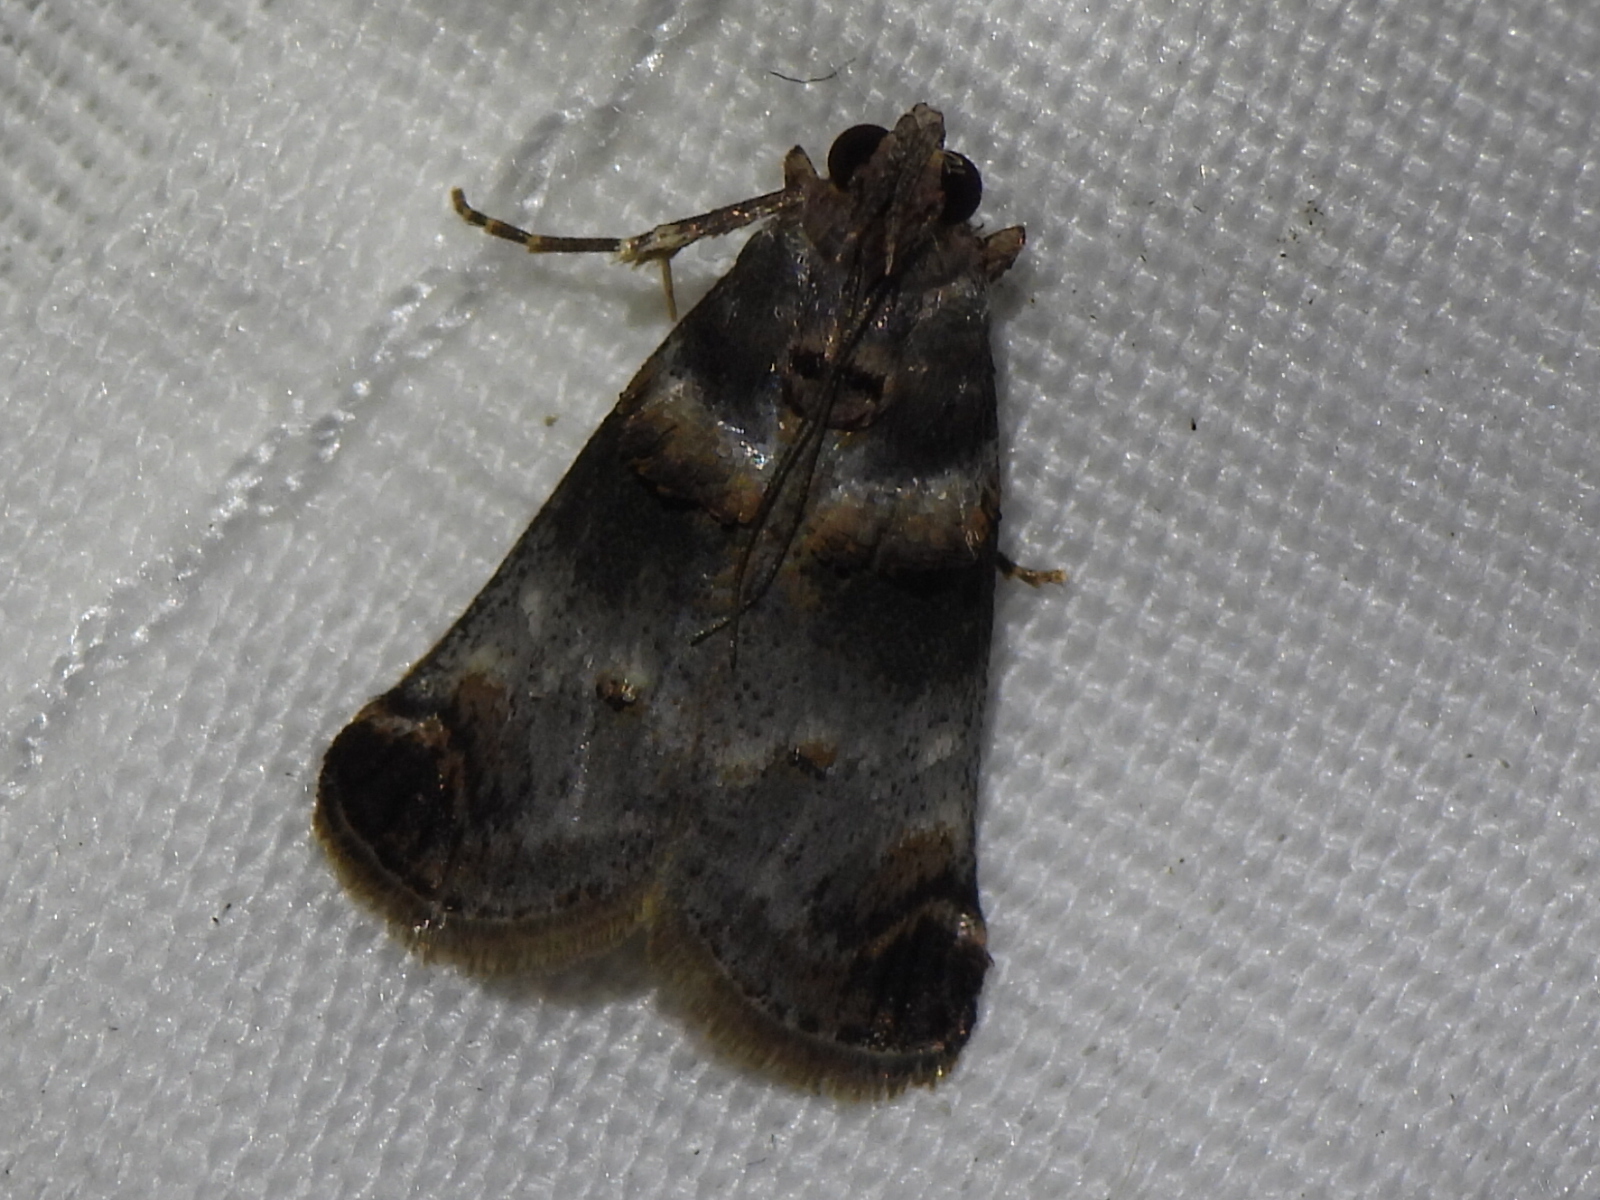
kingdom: Animalia
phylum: Arthropoda
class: Insecta
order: Lepidoptera
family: Pyralidae
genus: Oneida
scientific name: Oneida lunulalis
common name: Orange-tufted oneida moth
